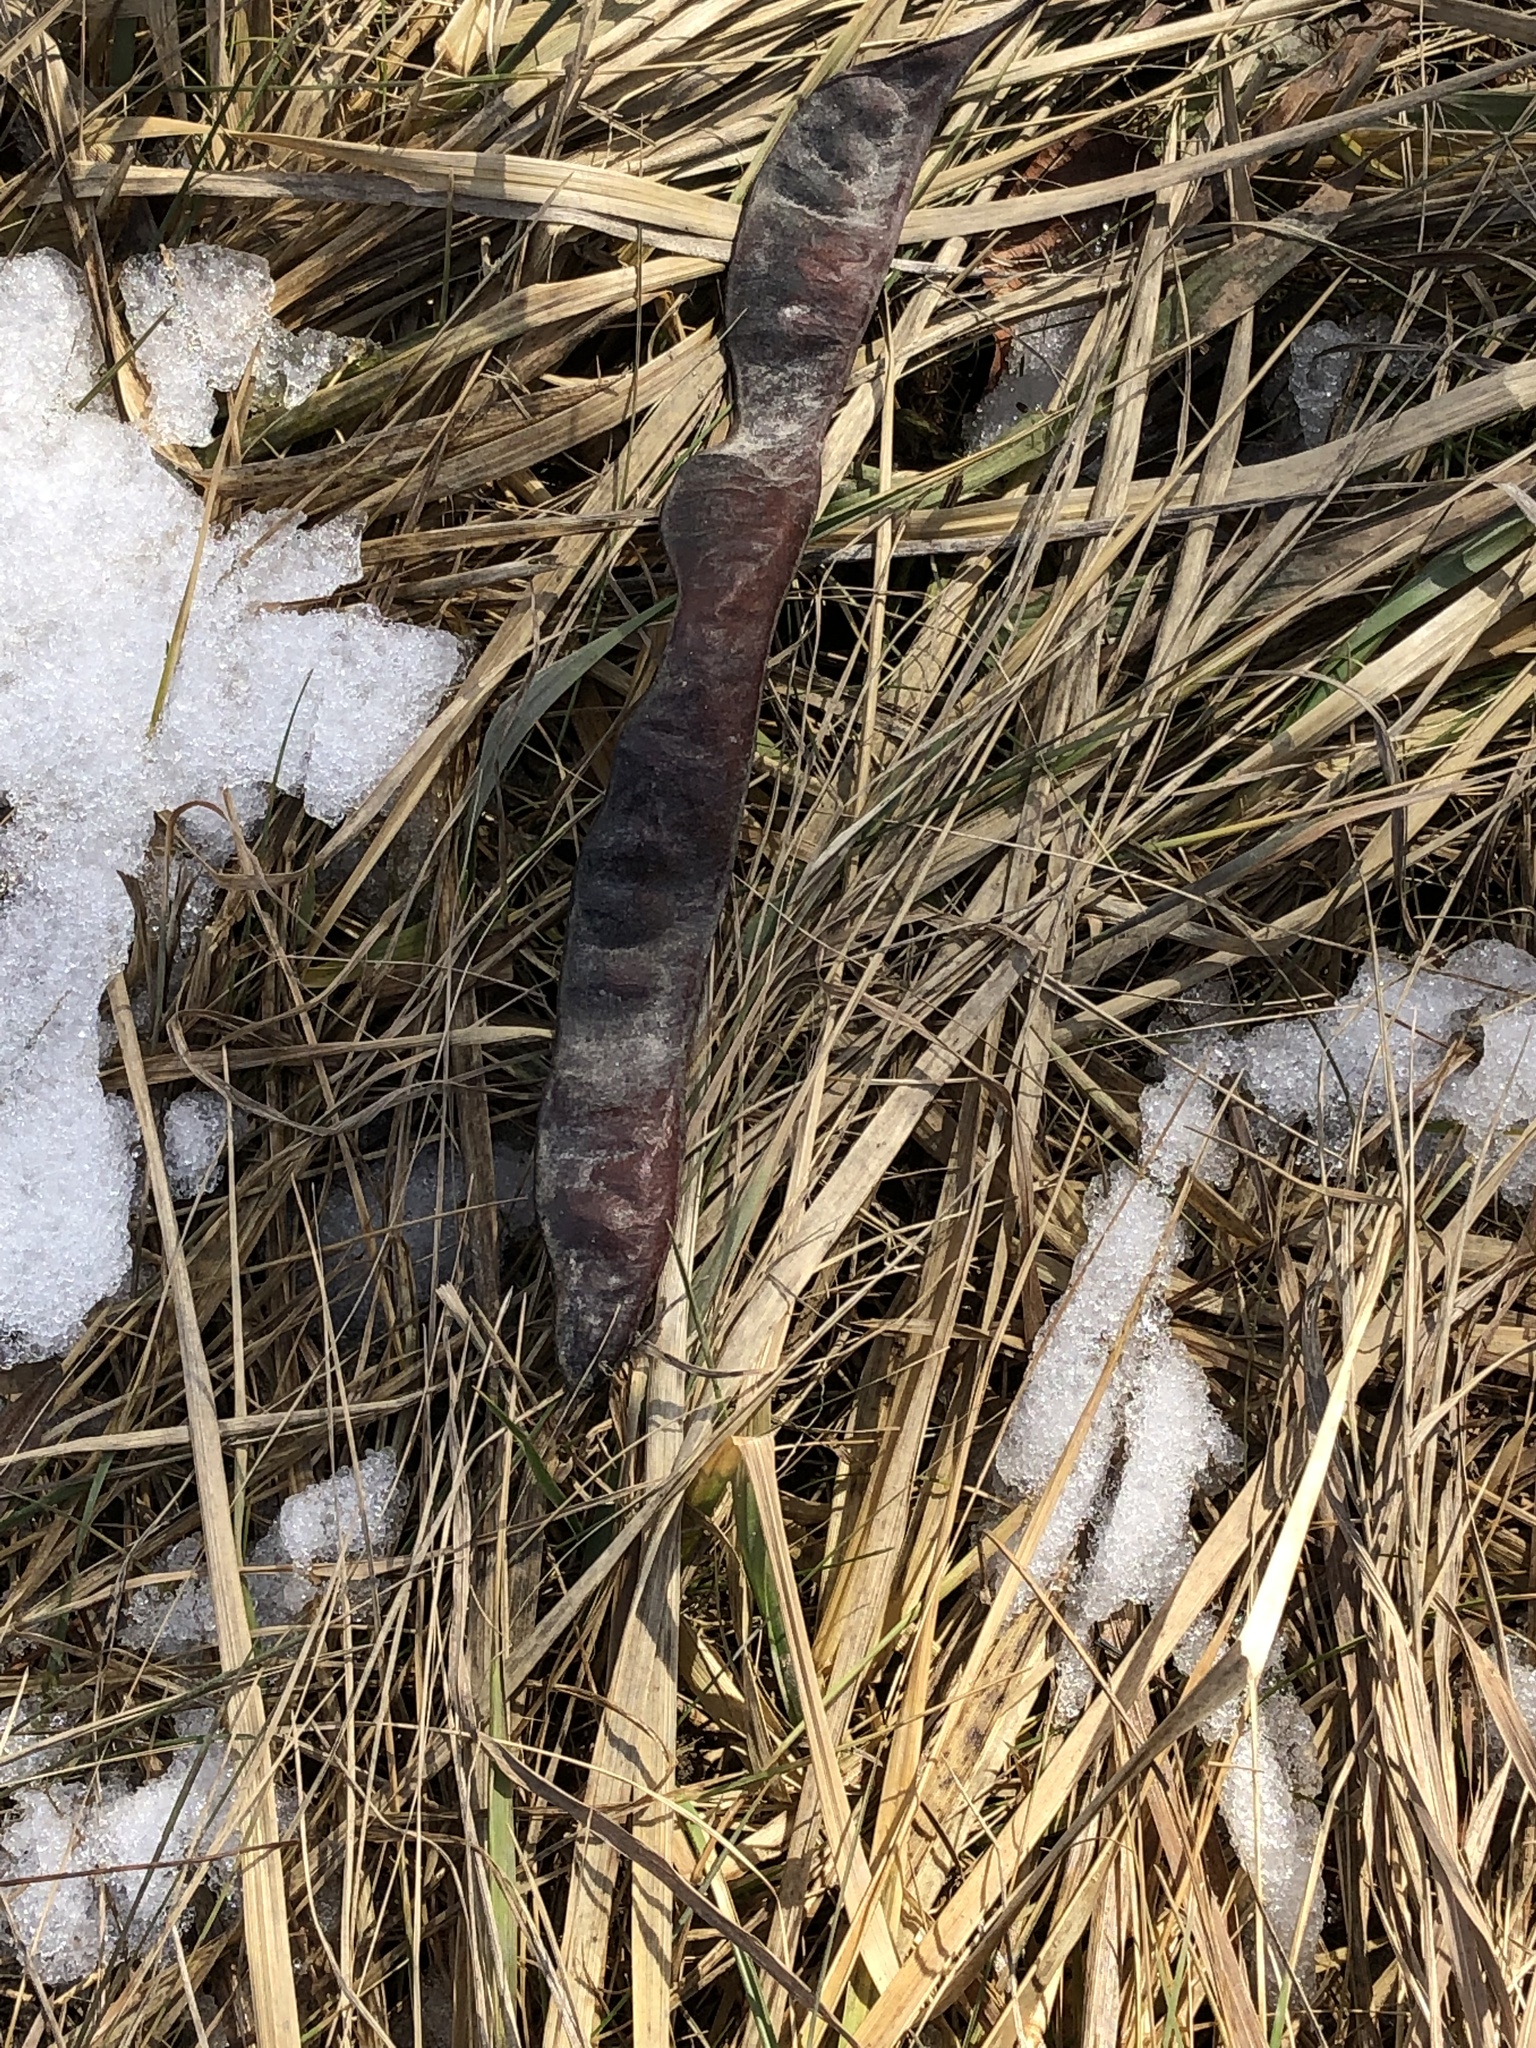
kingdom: Plantae
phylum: Tracheophyta
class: Magnoliopsida
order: Fabales
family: Fabaceae
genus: Gleditsia
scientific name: Gleditsia triacanthos
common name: Common honeylocust
